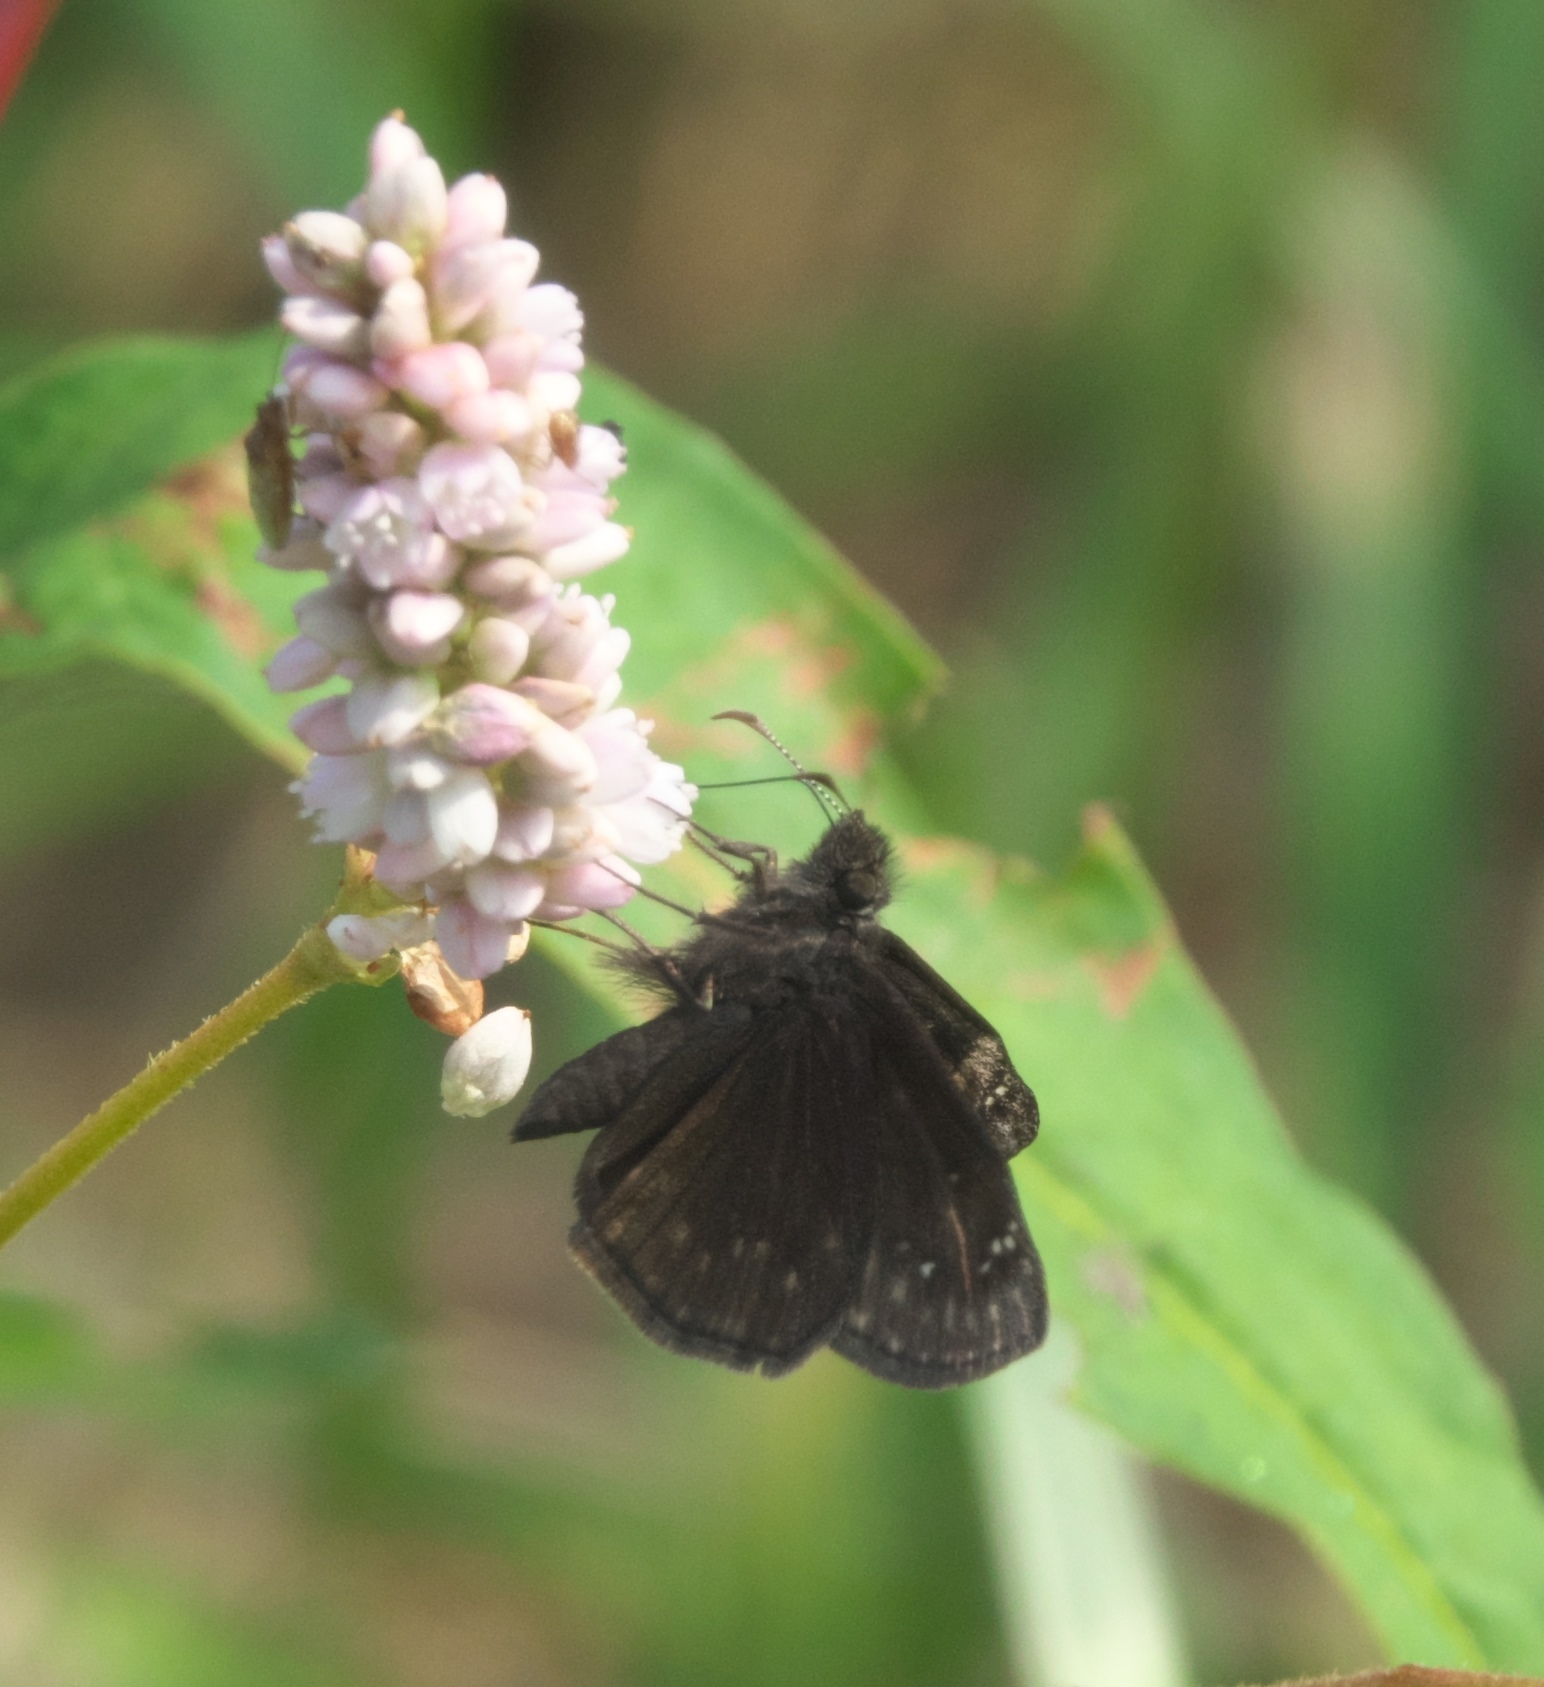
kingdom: Animalia
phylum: Arthropoda
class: Insecta
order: Lepidoptera
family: Hesperiidae
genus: Erynnis
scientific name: Erynnis baptisiae
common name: Wild indigo duskywing
